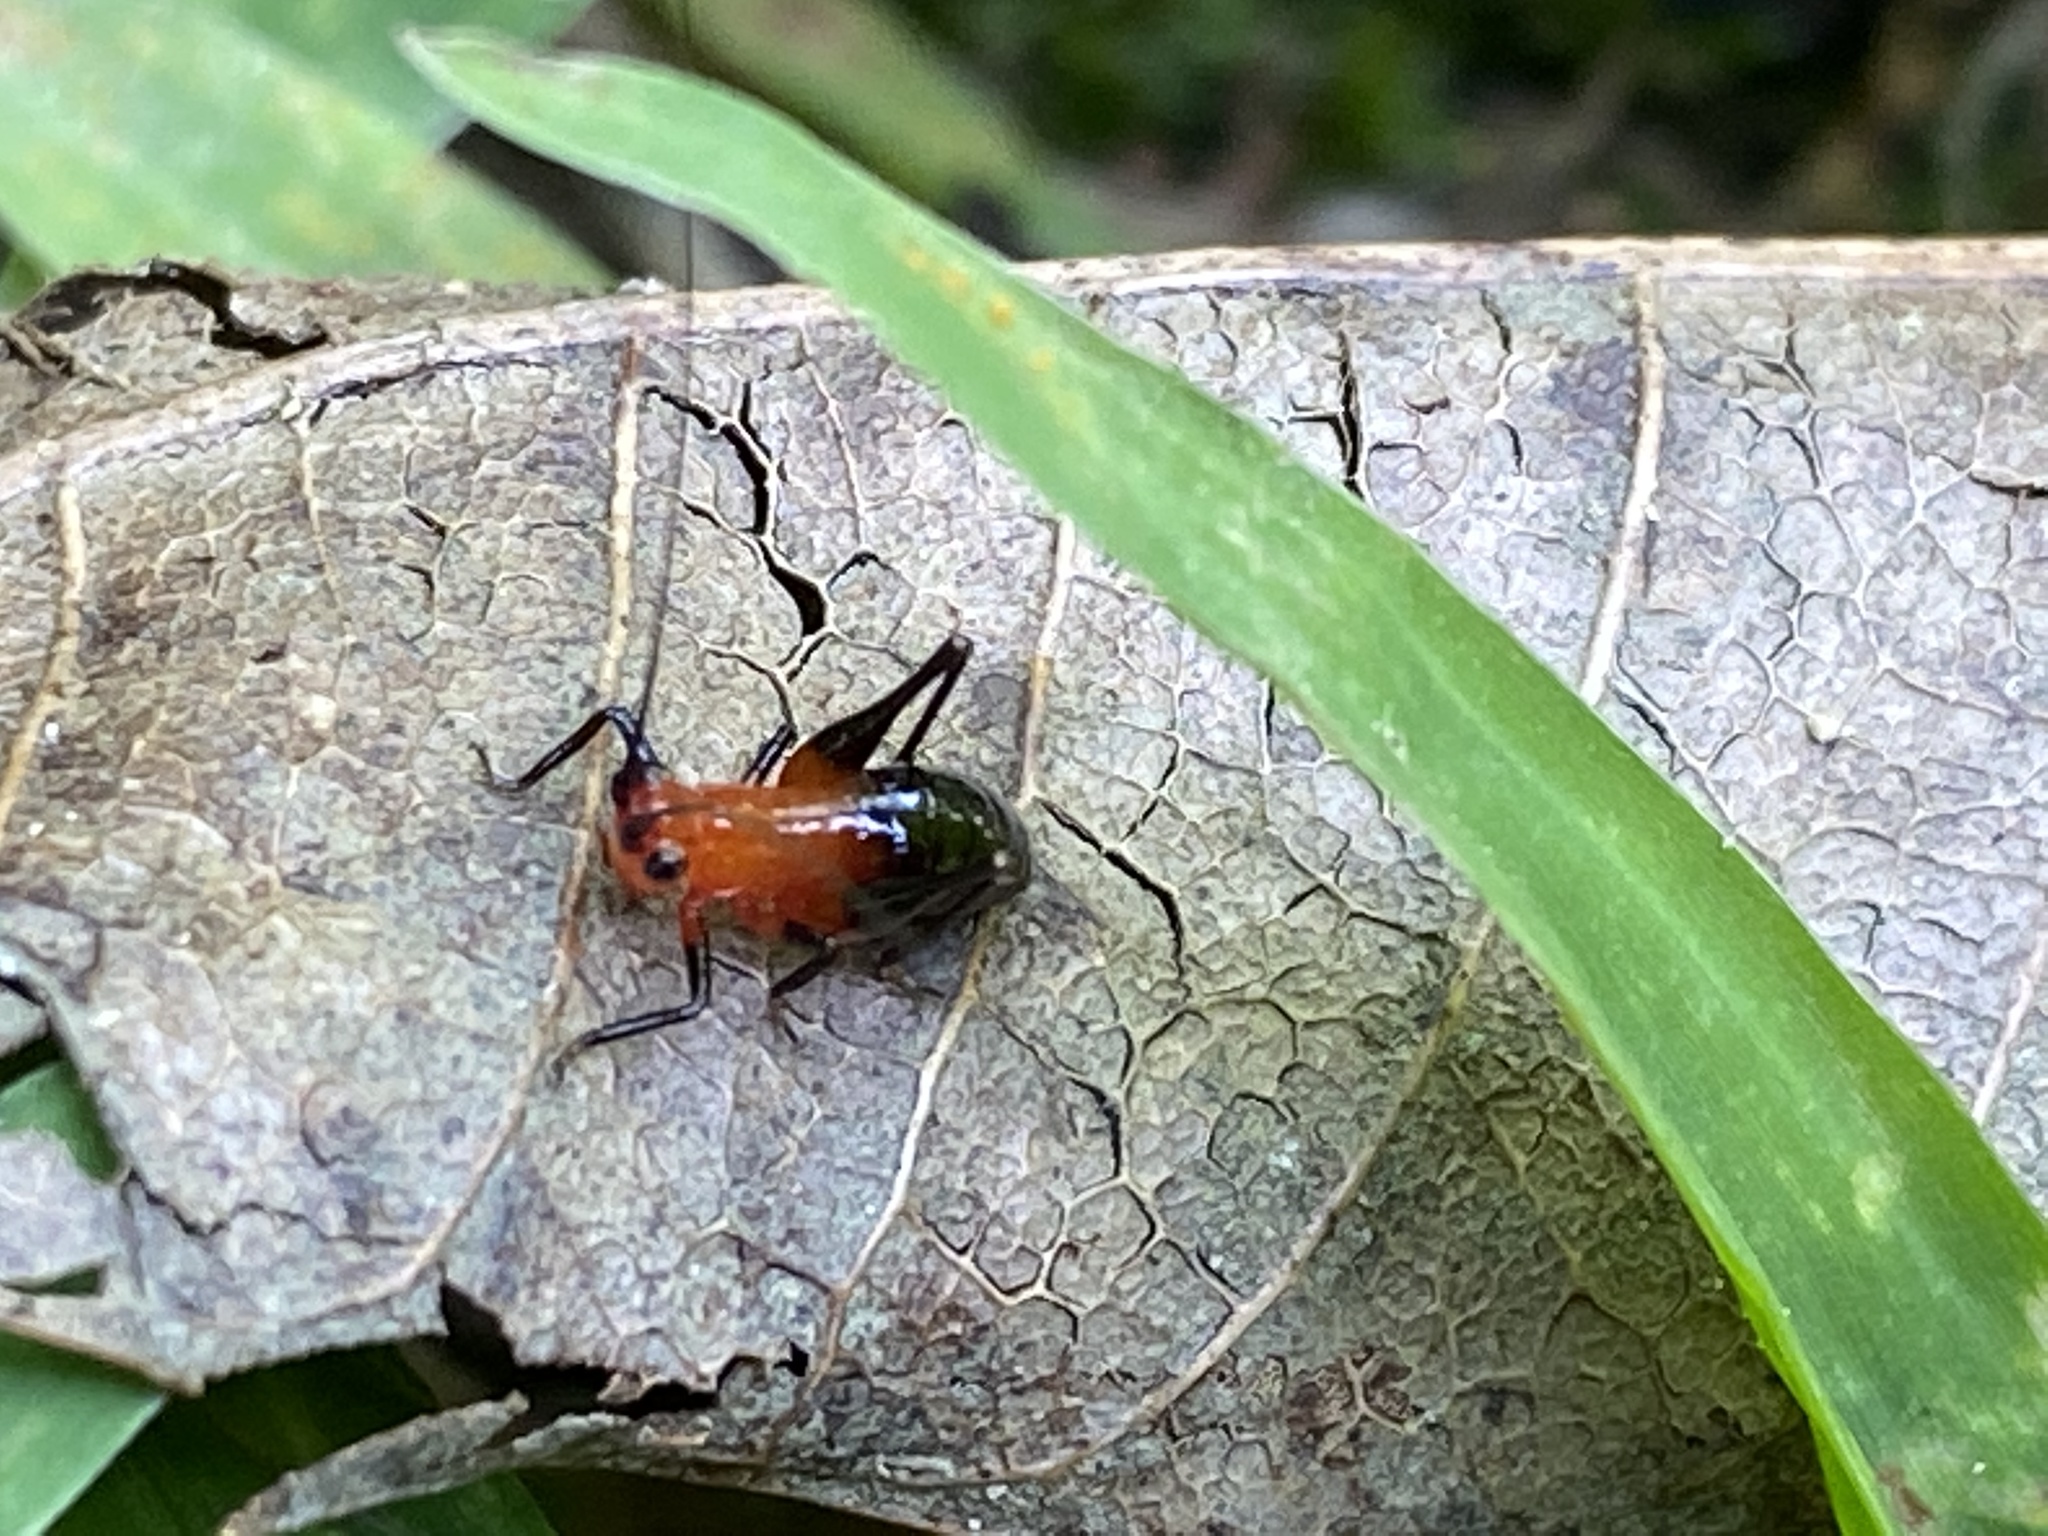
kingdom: Animalia
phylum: Arthropoda
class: Insecta
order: Orthoptera
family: Tettigoniidae
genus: Conocephalus
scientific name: Conocephalus melaenus
